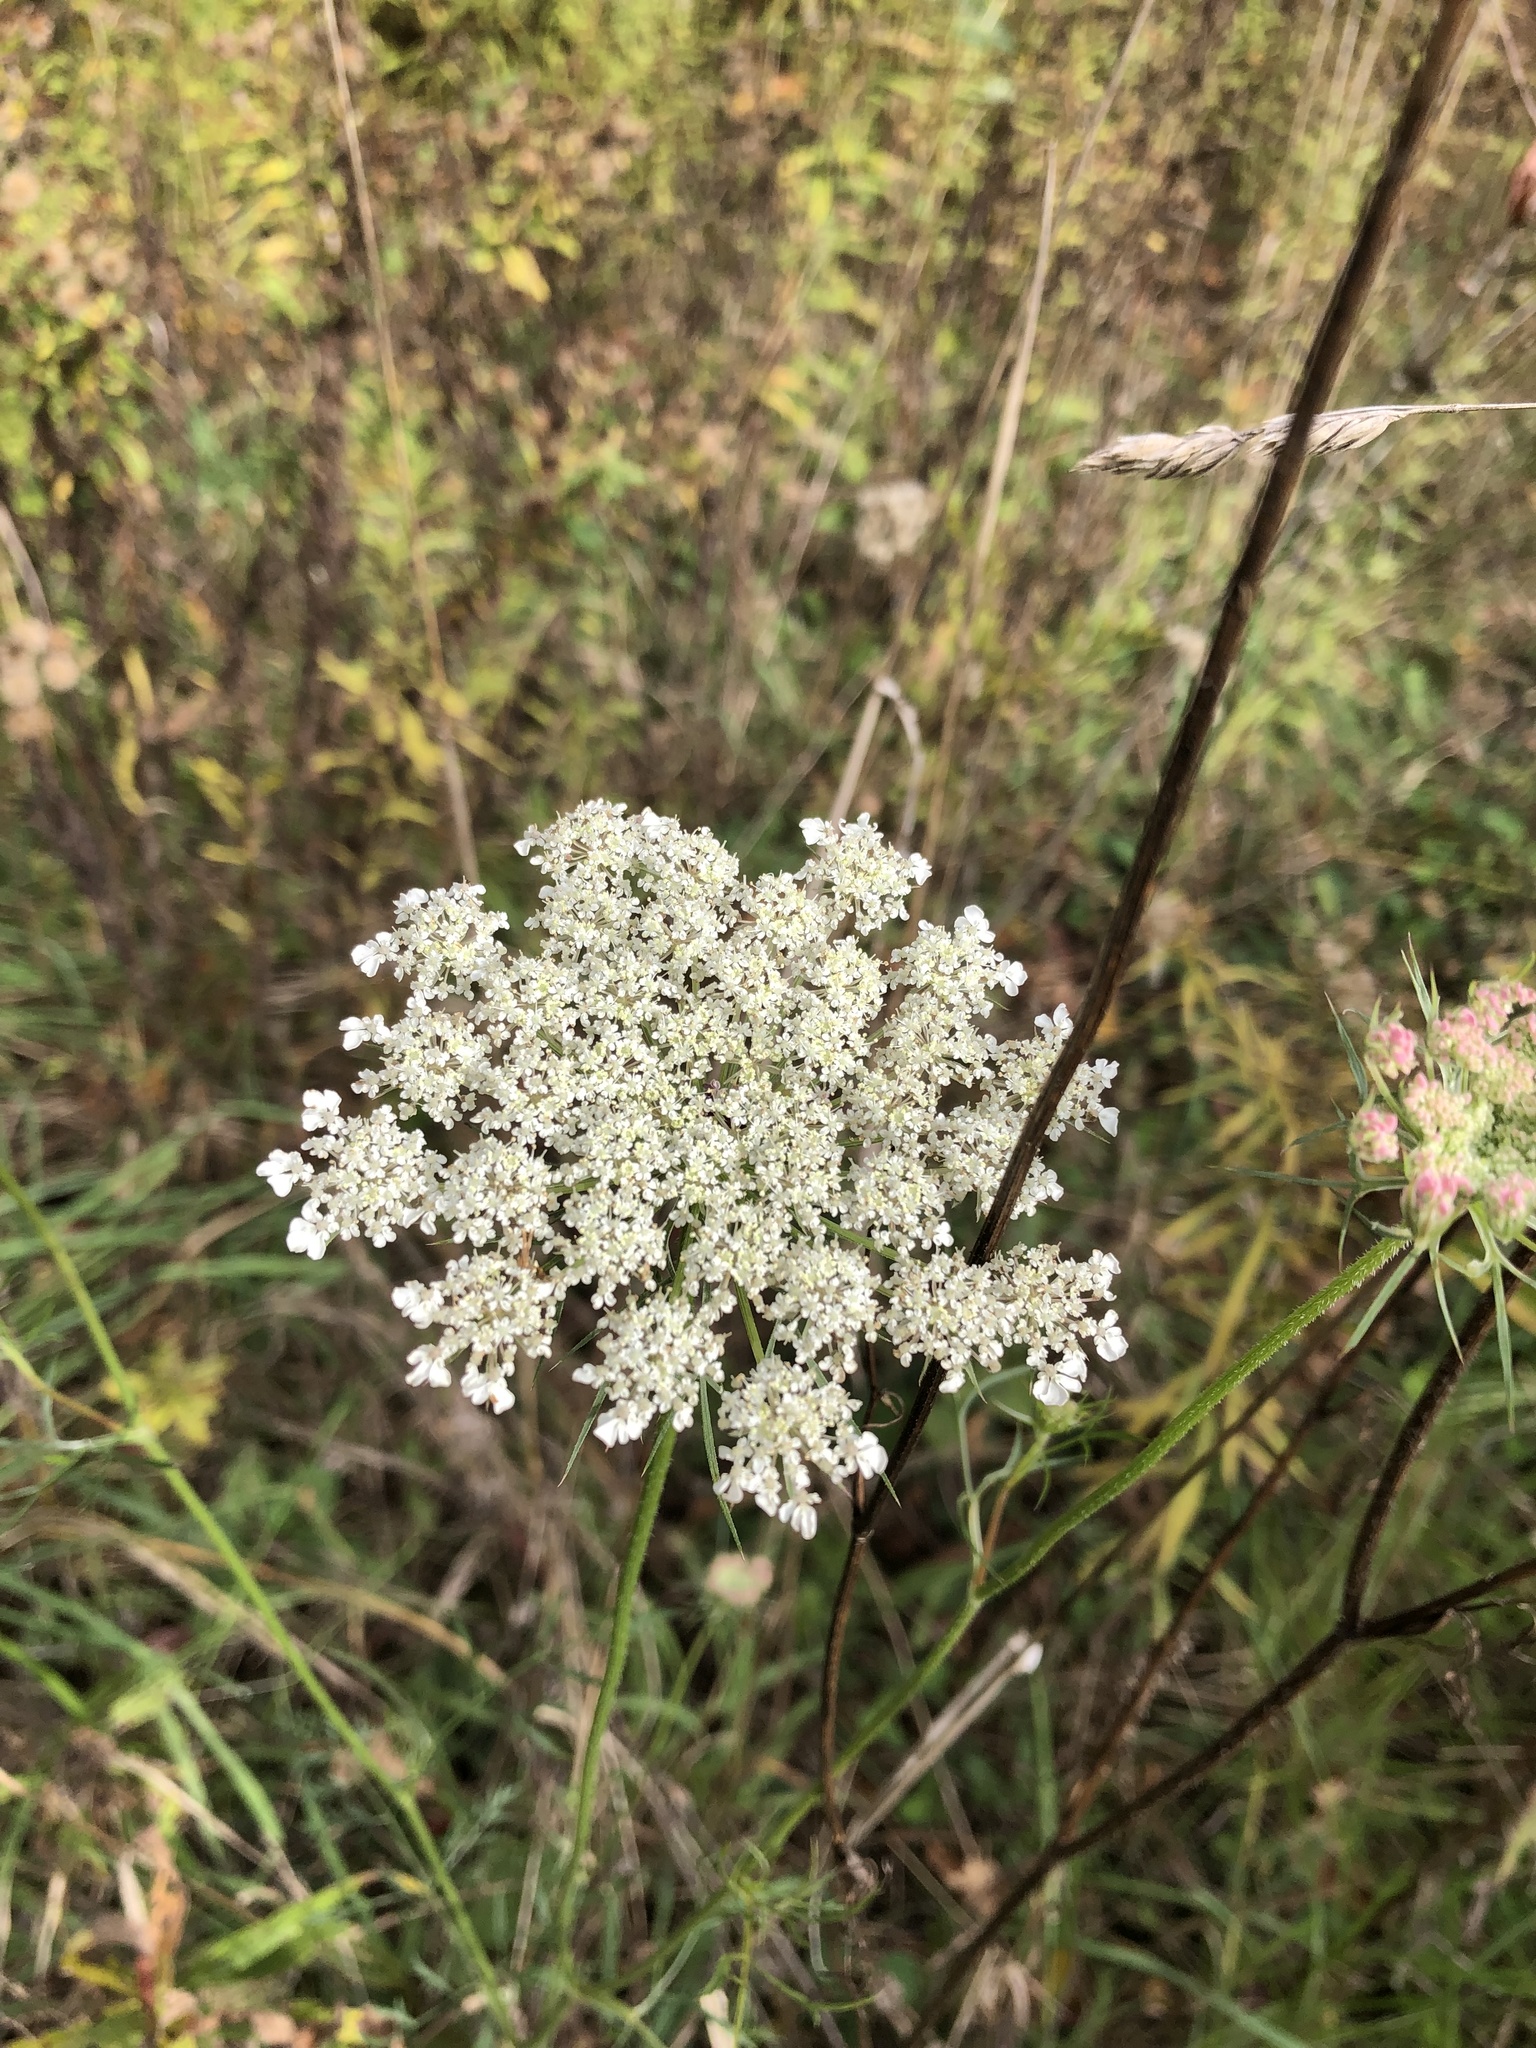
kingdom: Plantae
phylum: Tracheophyta
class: Magnoliopsida
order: Apiales
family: Apiaceae
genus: Daucus
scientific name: Daucus carota
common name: Wild carrot
